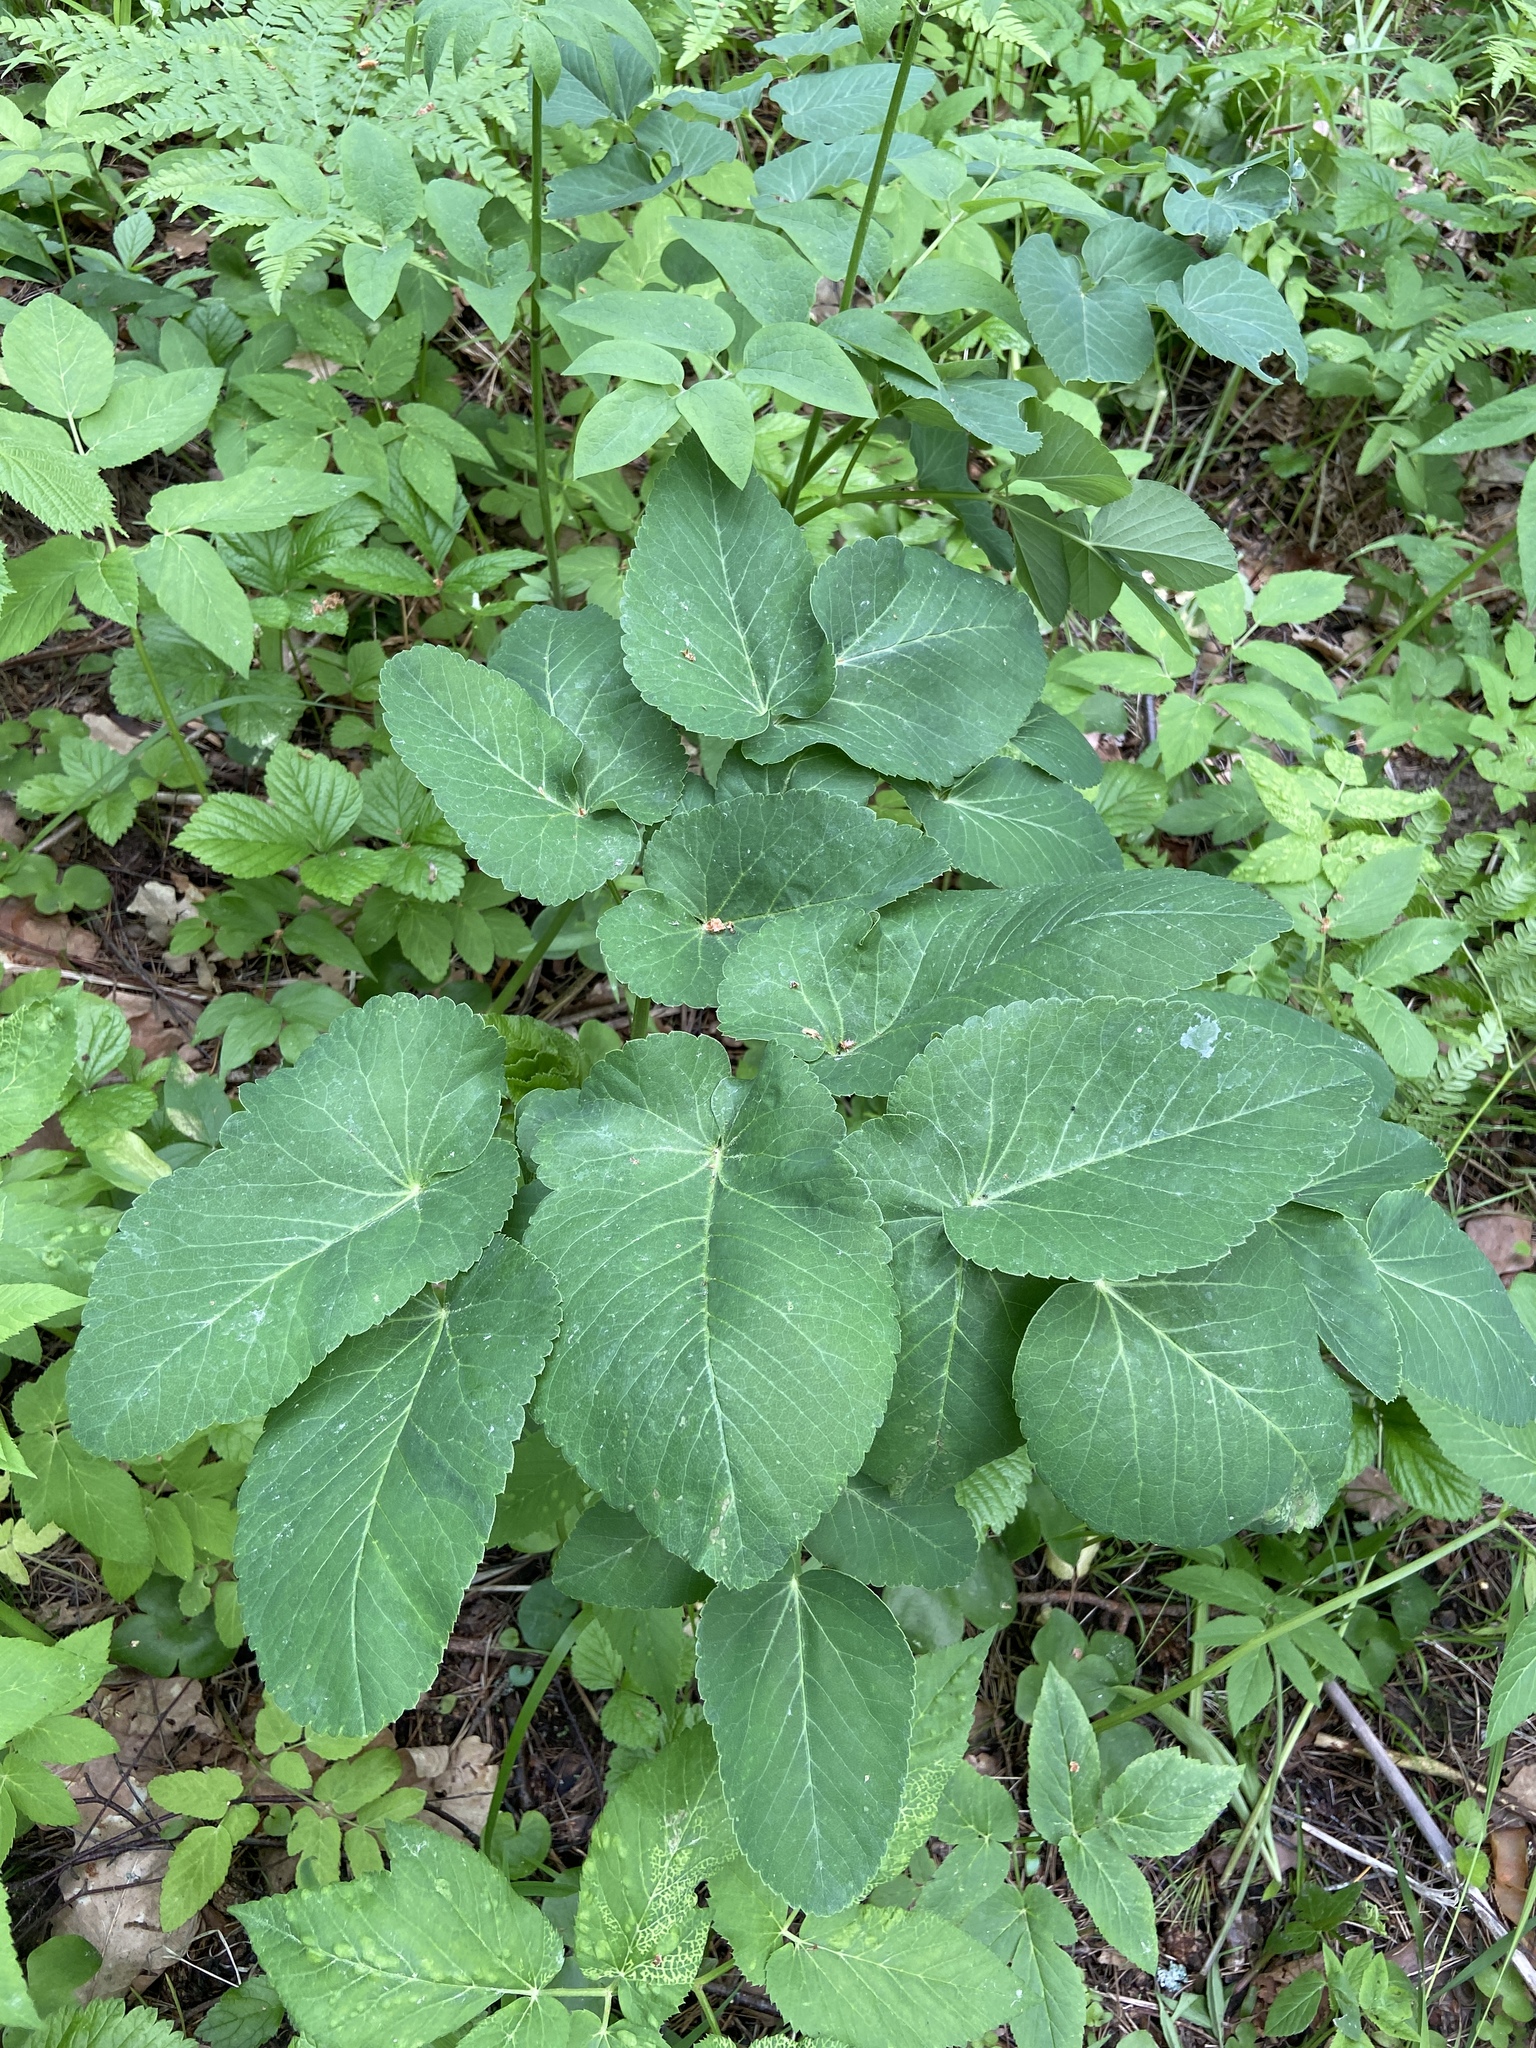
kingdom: Plantae
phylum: Tracheophyta
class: Magnoliopsida
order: Apiales
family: Apiaceae
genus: Laserpitium
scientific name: Laserpitium latifolium
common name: Broadleaf sermountain
